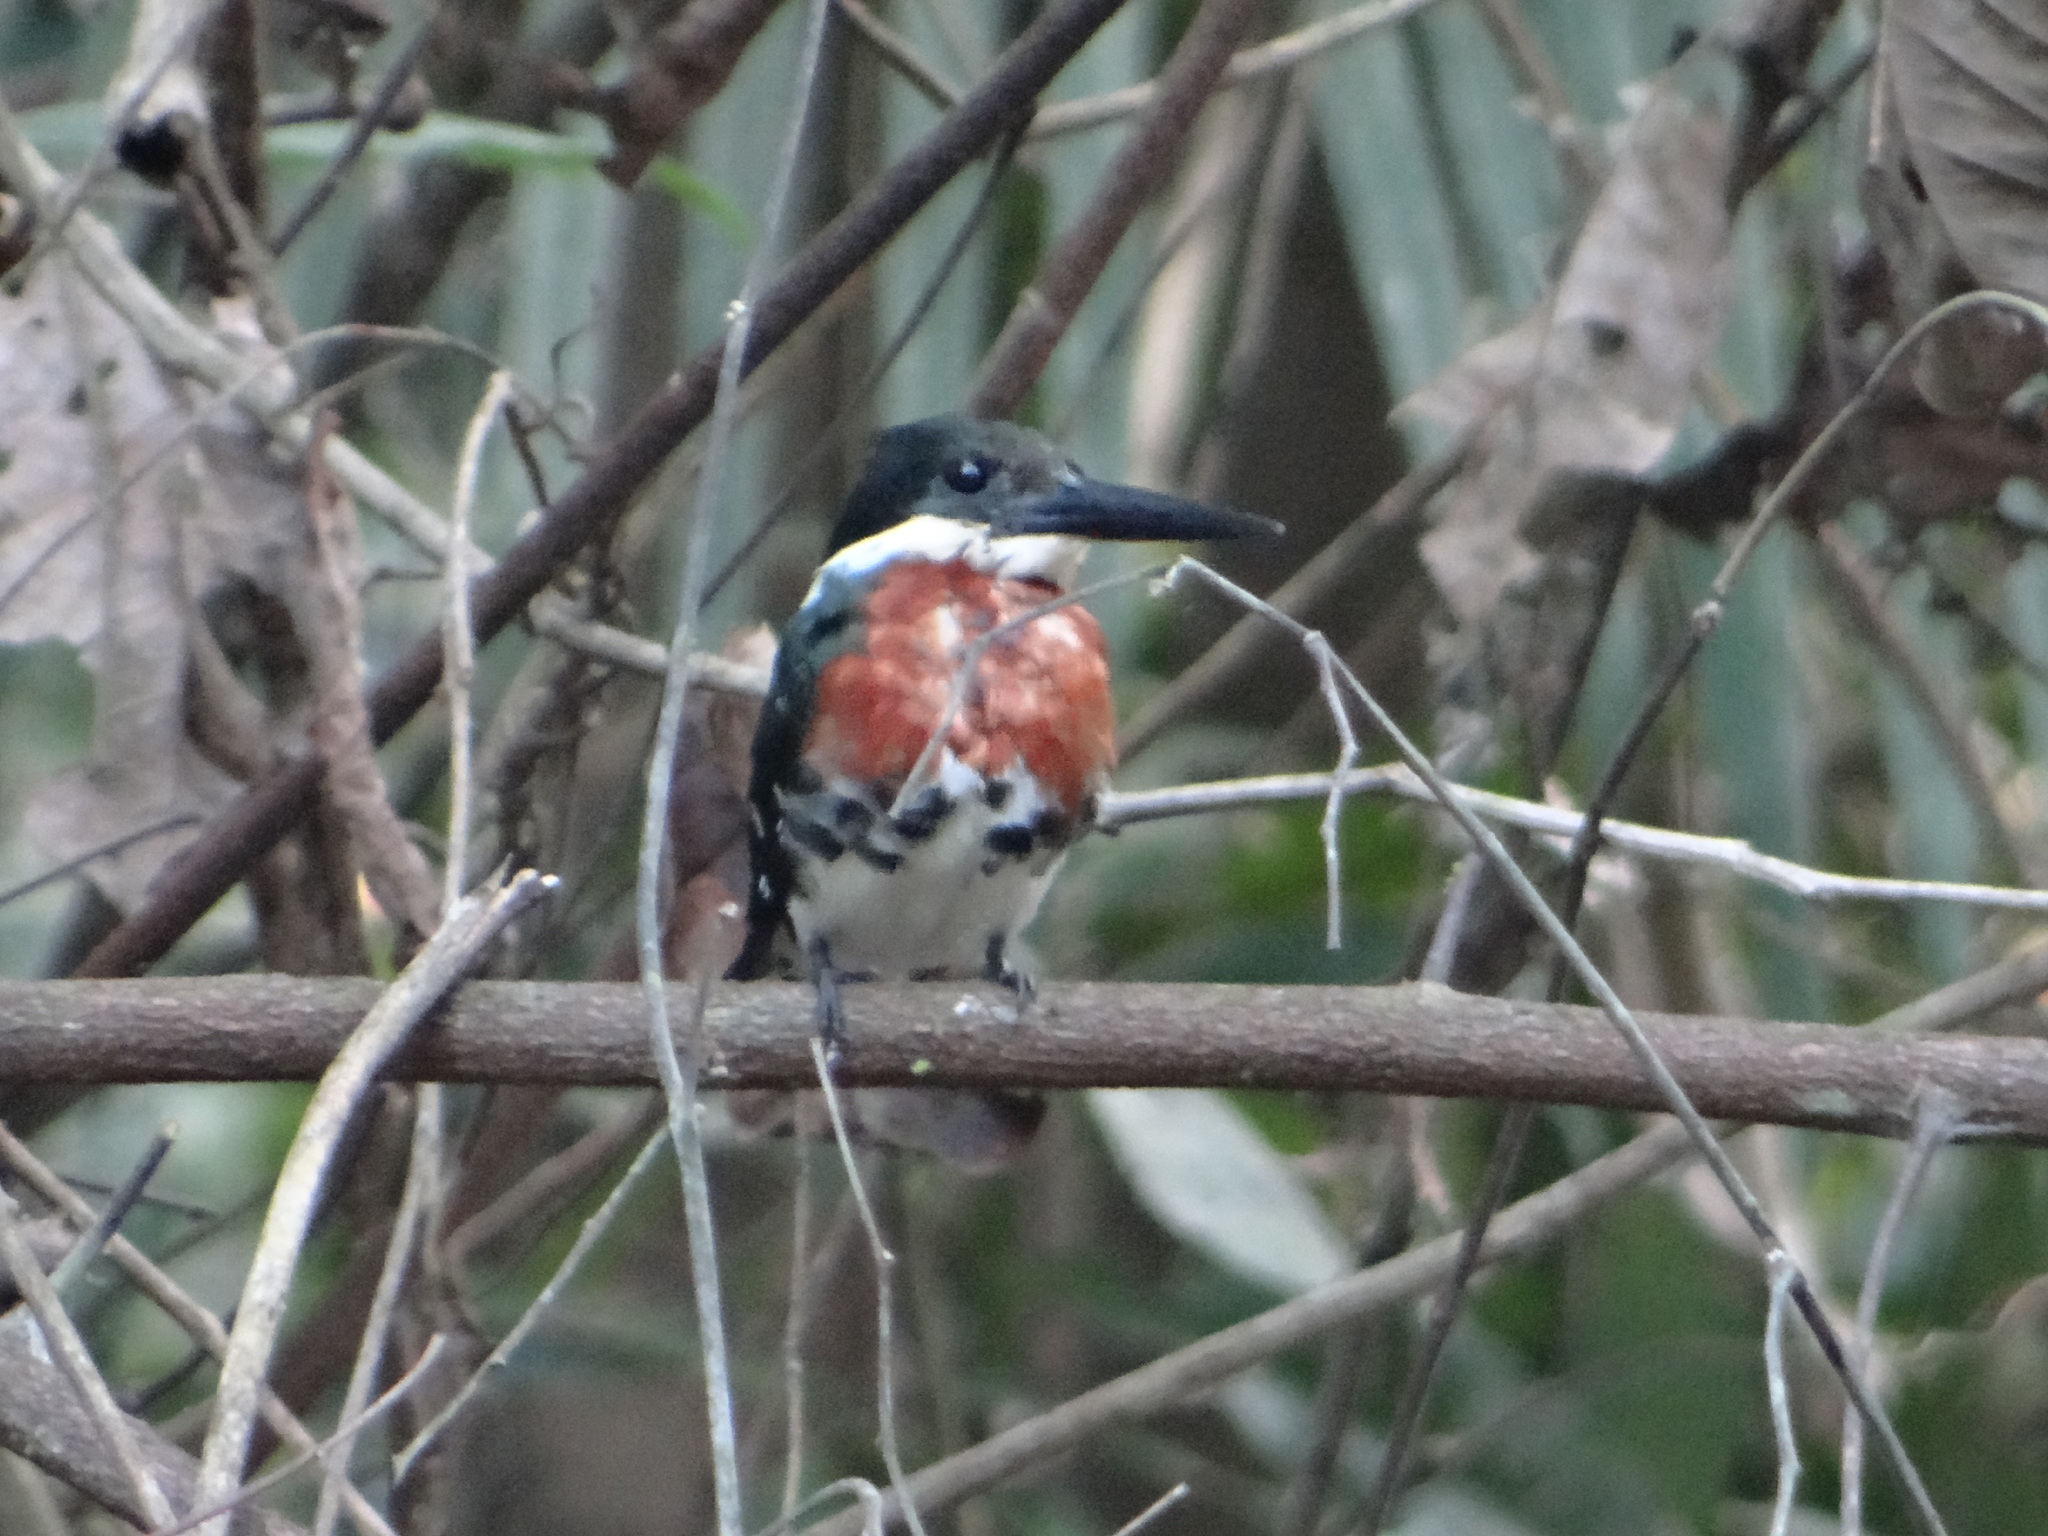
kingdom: Animalia
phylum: Chordata
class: Aves
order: Coraciiformes
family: Alcedinidae
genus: Chloroceryle
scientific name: Chloroceryle americana
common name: Green kingfisher
